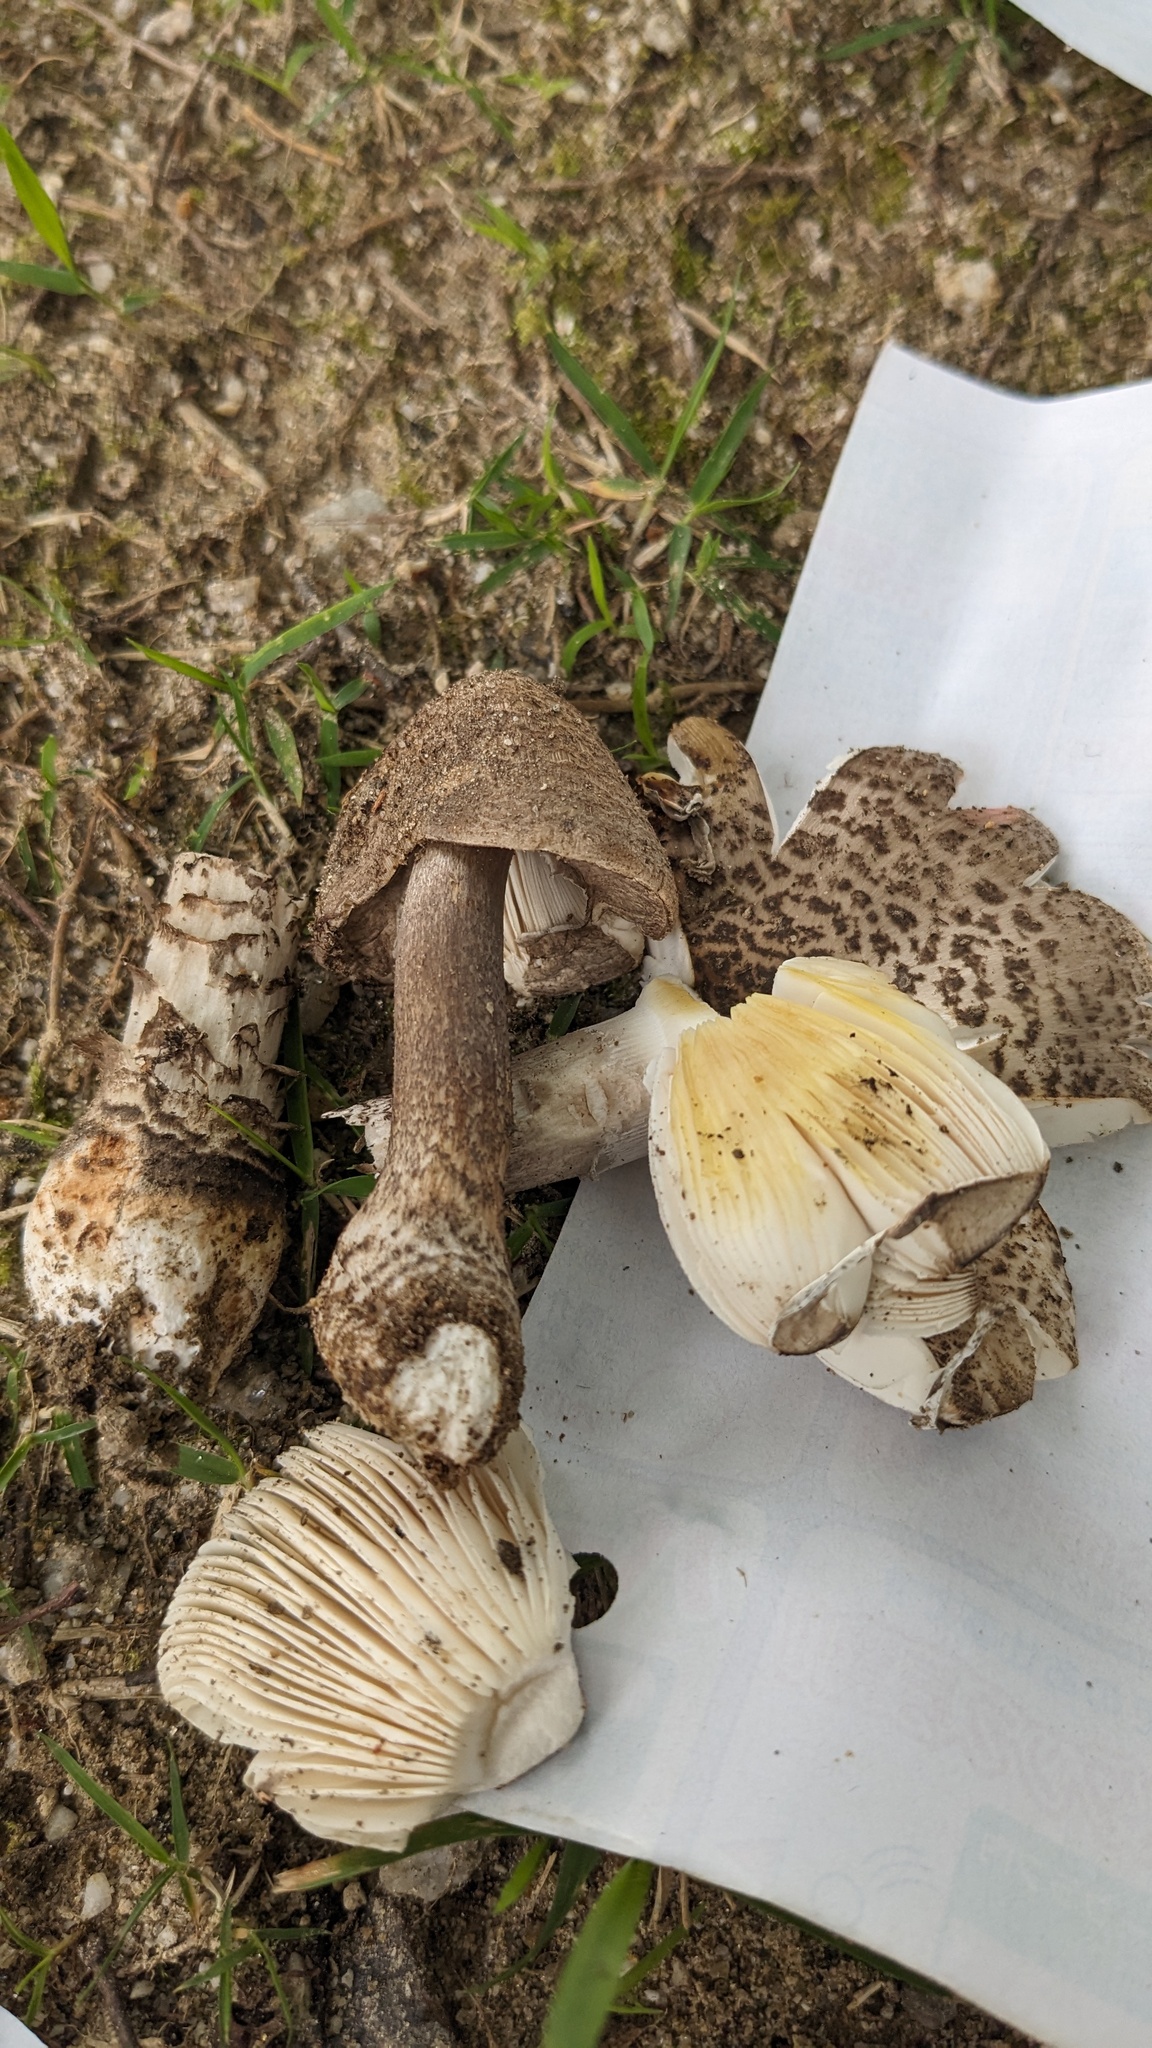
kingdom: Fungi
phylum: Basidiomycota
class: Agaricomycetes
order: Agaricales
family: Amanitaceae
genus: Amanita
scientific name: Amanita spissacea
